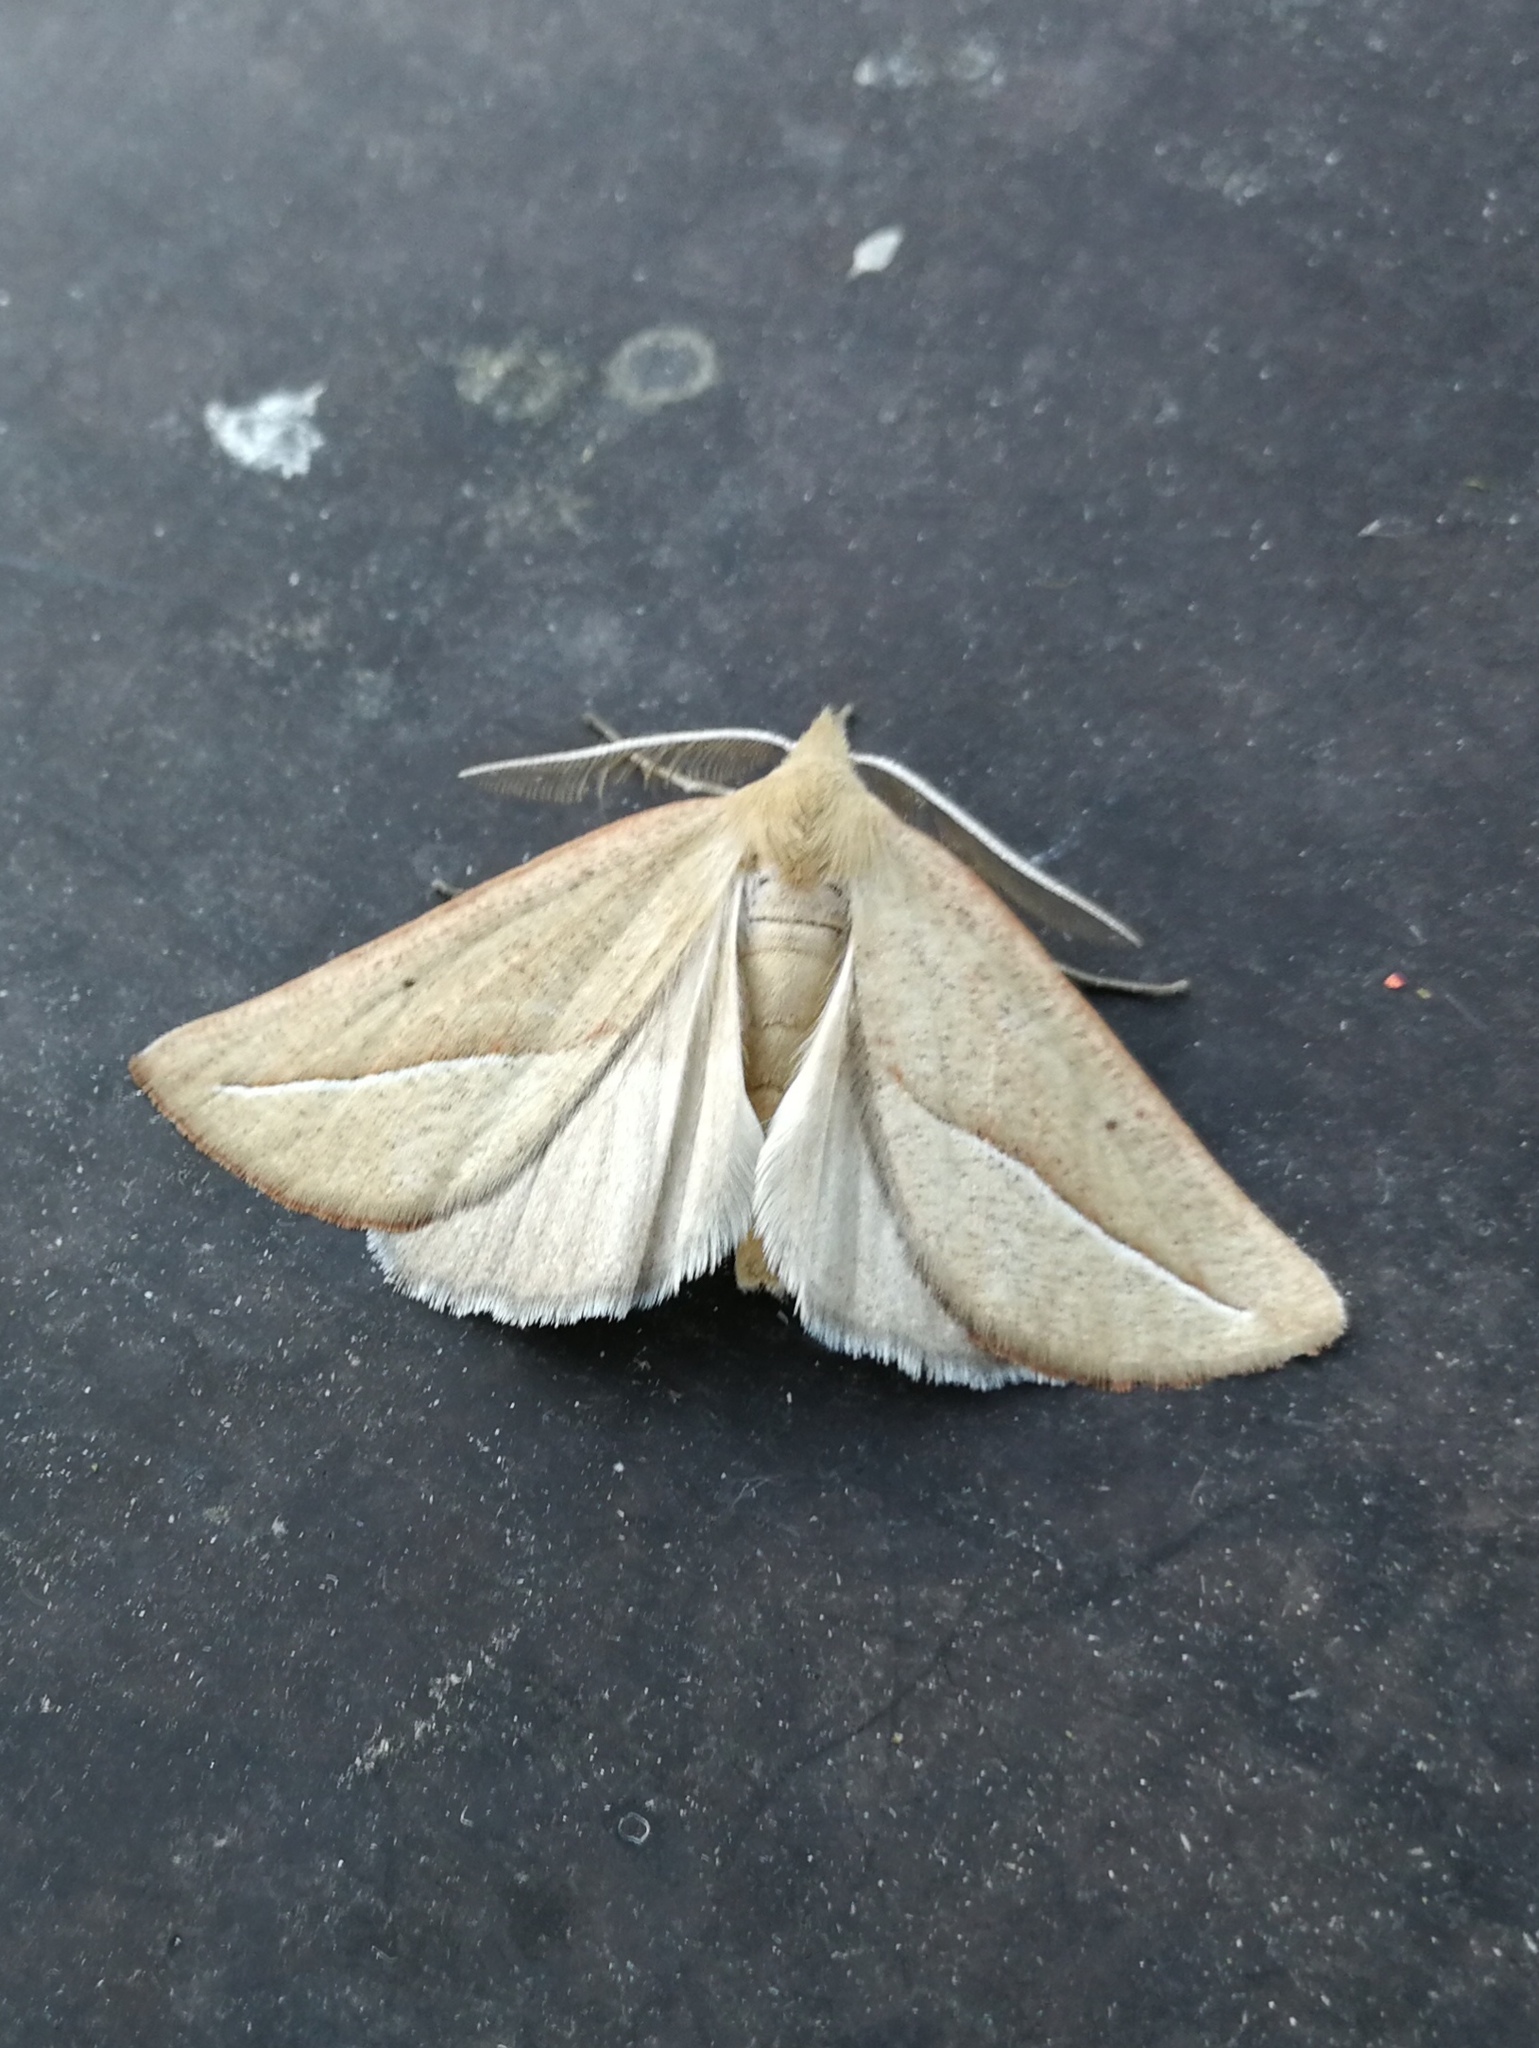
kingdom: Animalia
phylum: Arthropoda
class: Insecta
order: Lepidoptera
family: Geometridae
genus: Compsoptera
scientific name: Compsoptera opacaria
